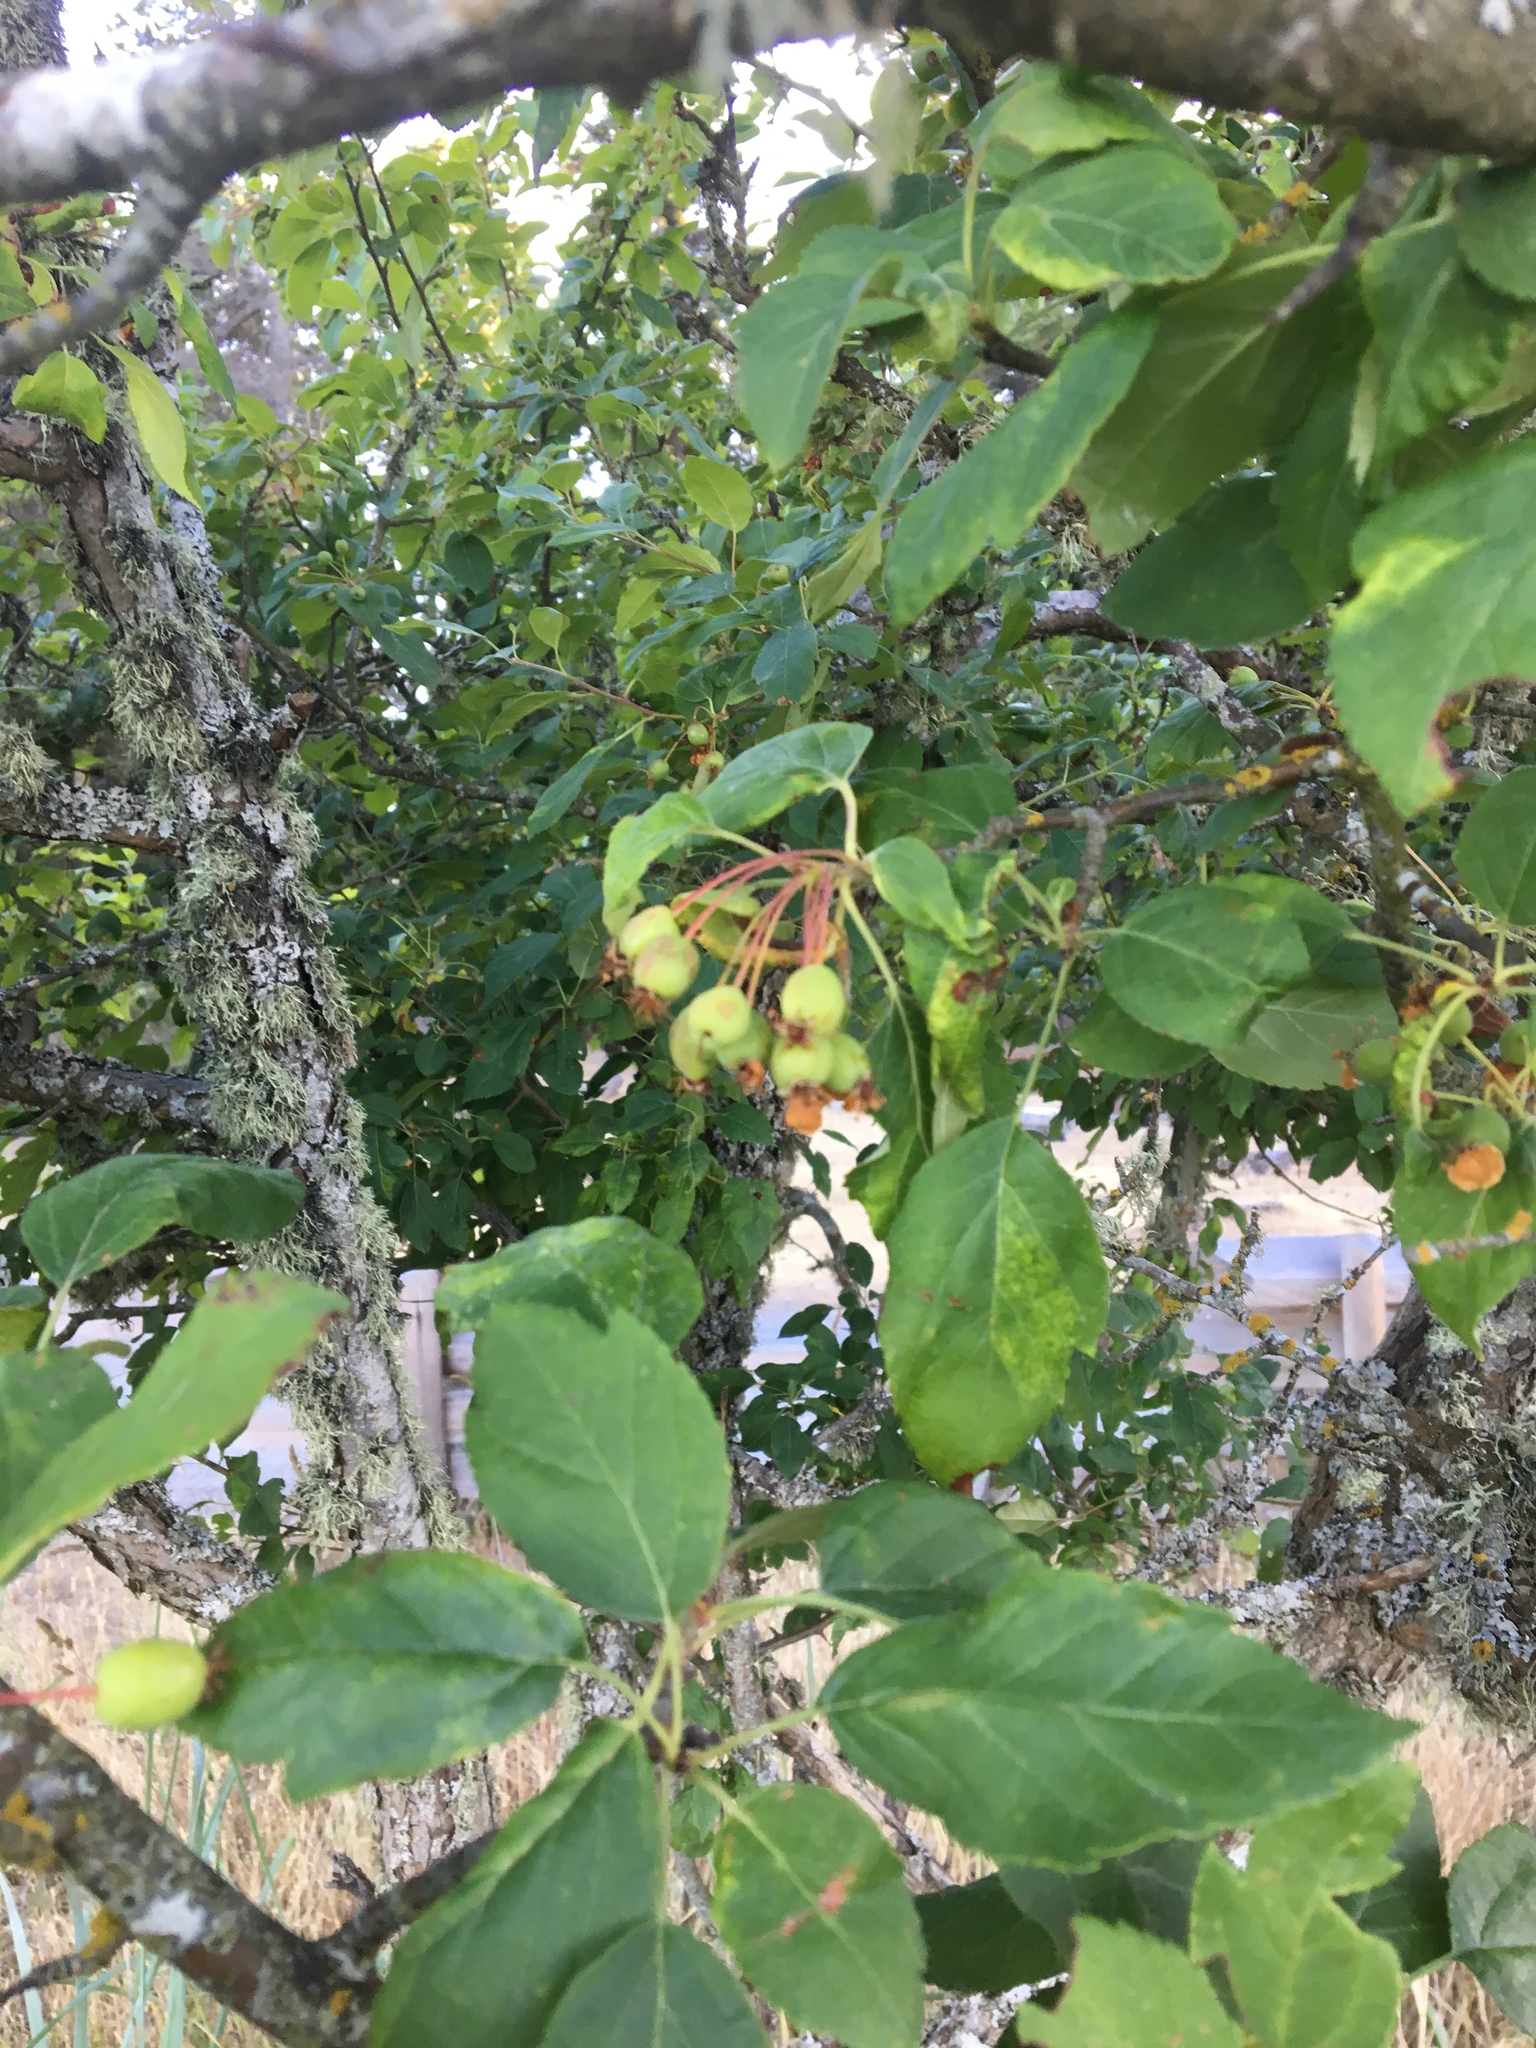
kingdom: Plantae
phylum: Tracheophyta
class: Magnoliopsida
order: Rosales
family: Rosaceae
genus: Malus
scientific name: Malus fusca
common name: Oregon crab apple
